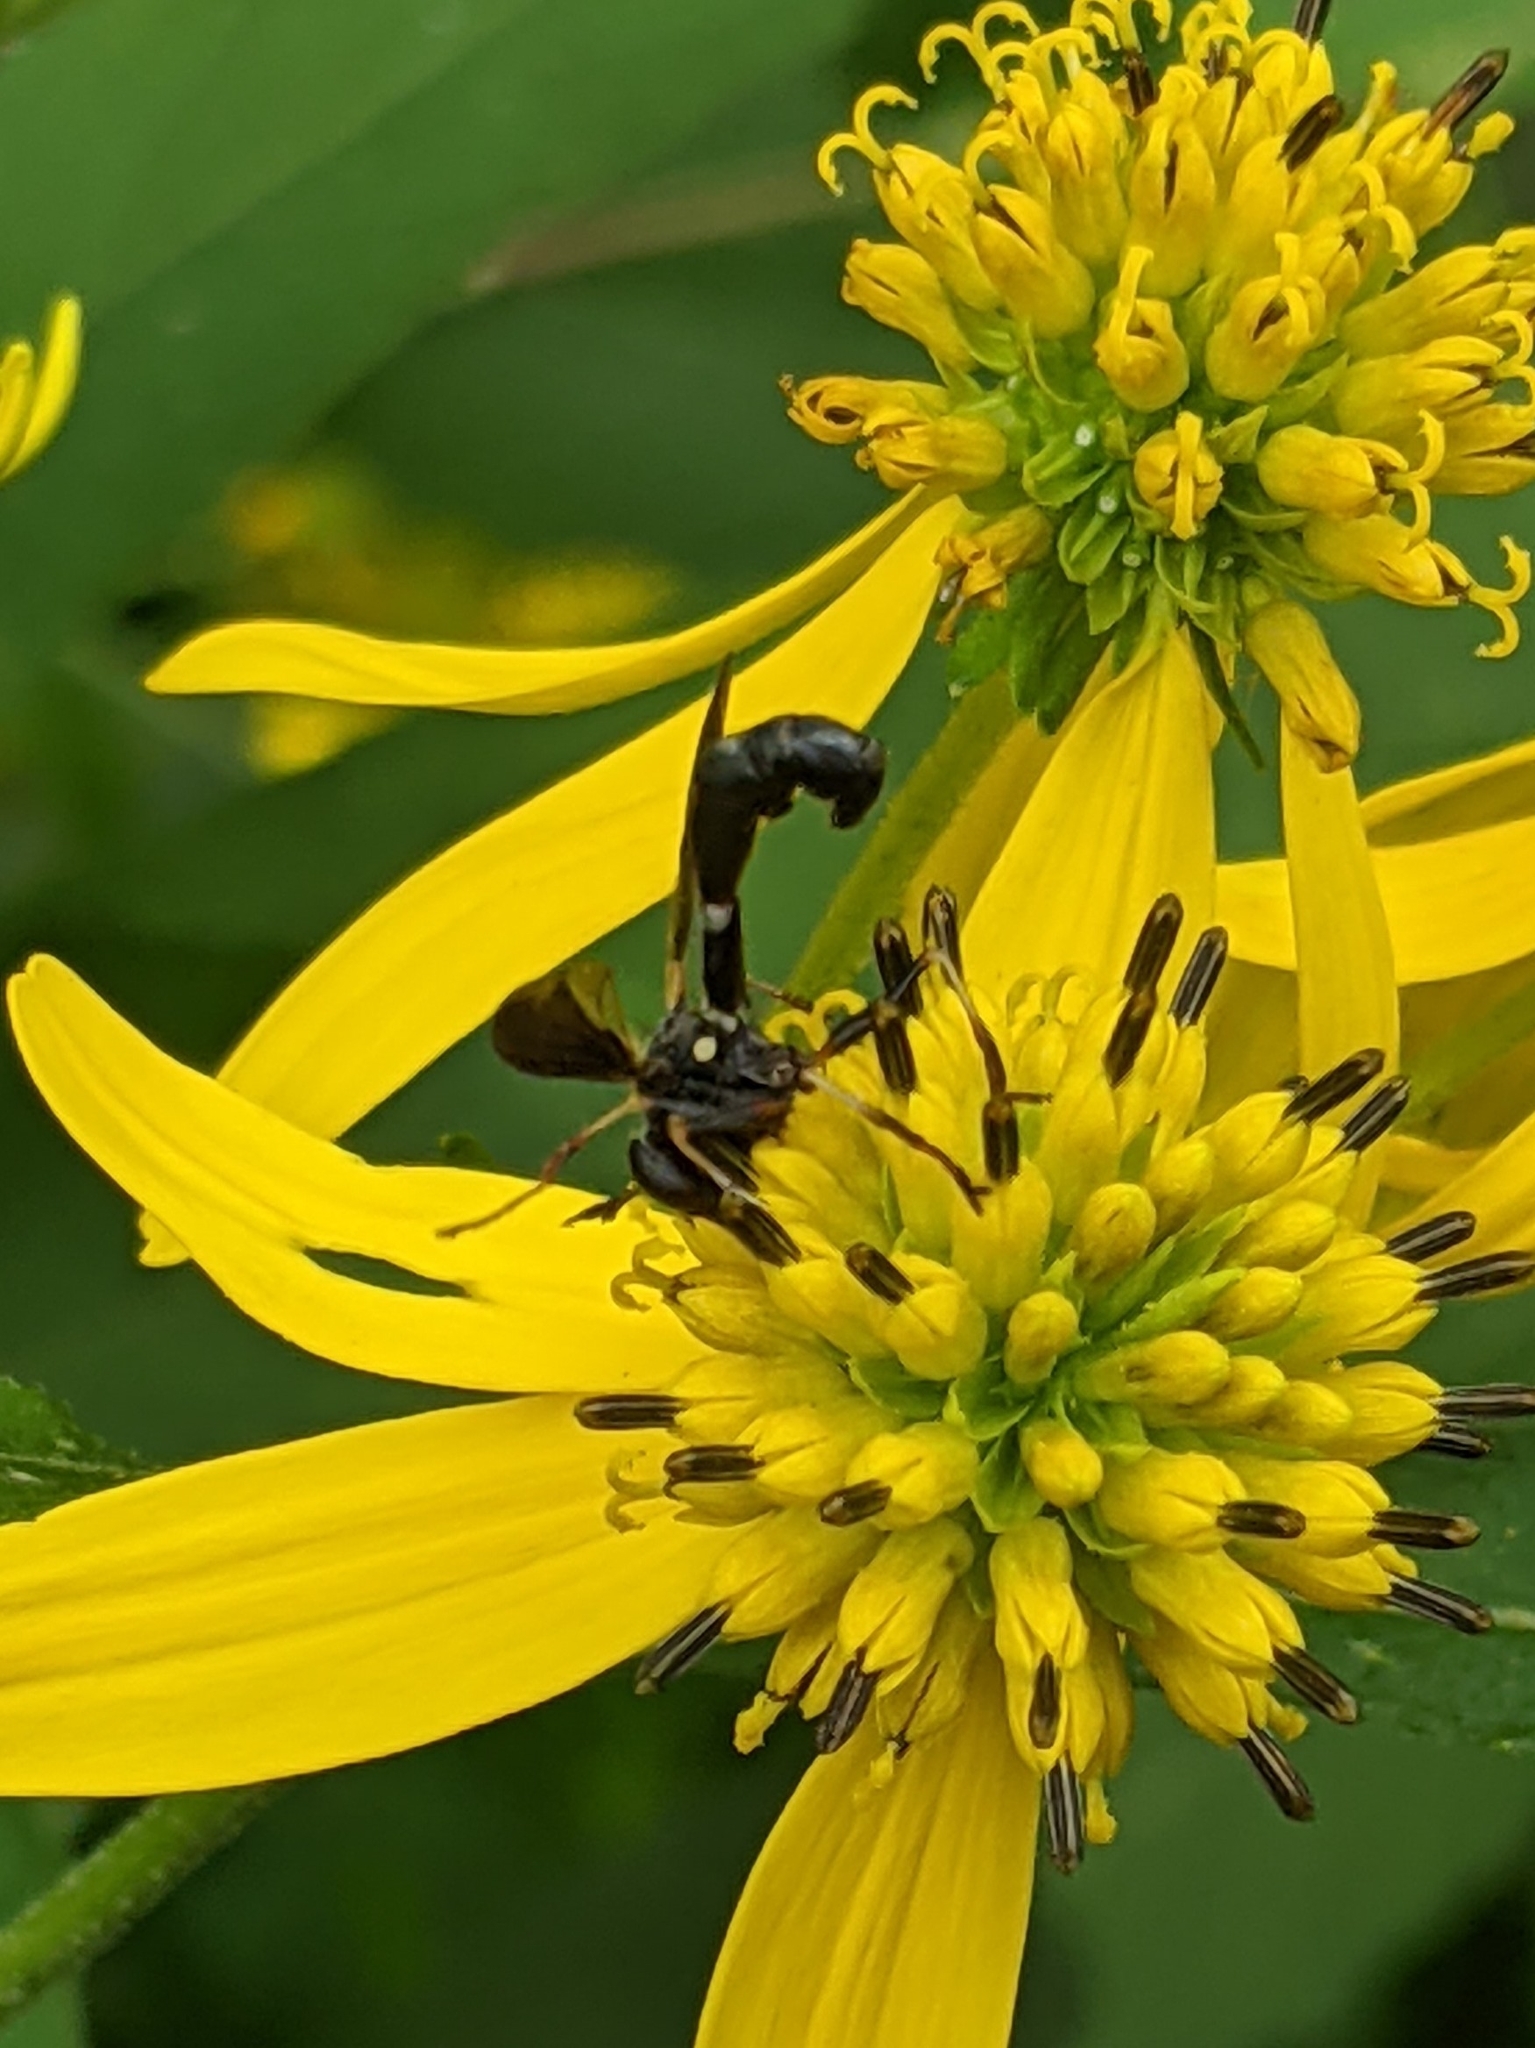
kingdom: Animalia
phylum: Arthropoda
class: Insecta
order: Diptera
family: Conopidae
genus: Physocephala
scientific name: Physocephala tibialis
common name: Common eastern physocephala
